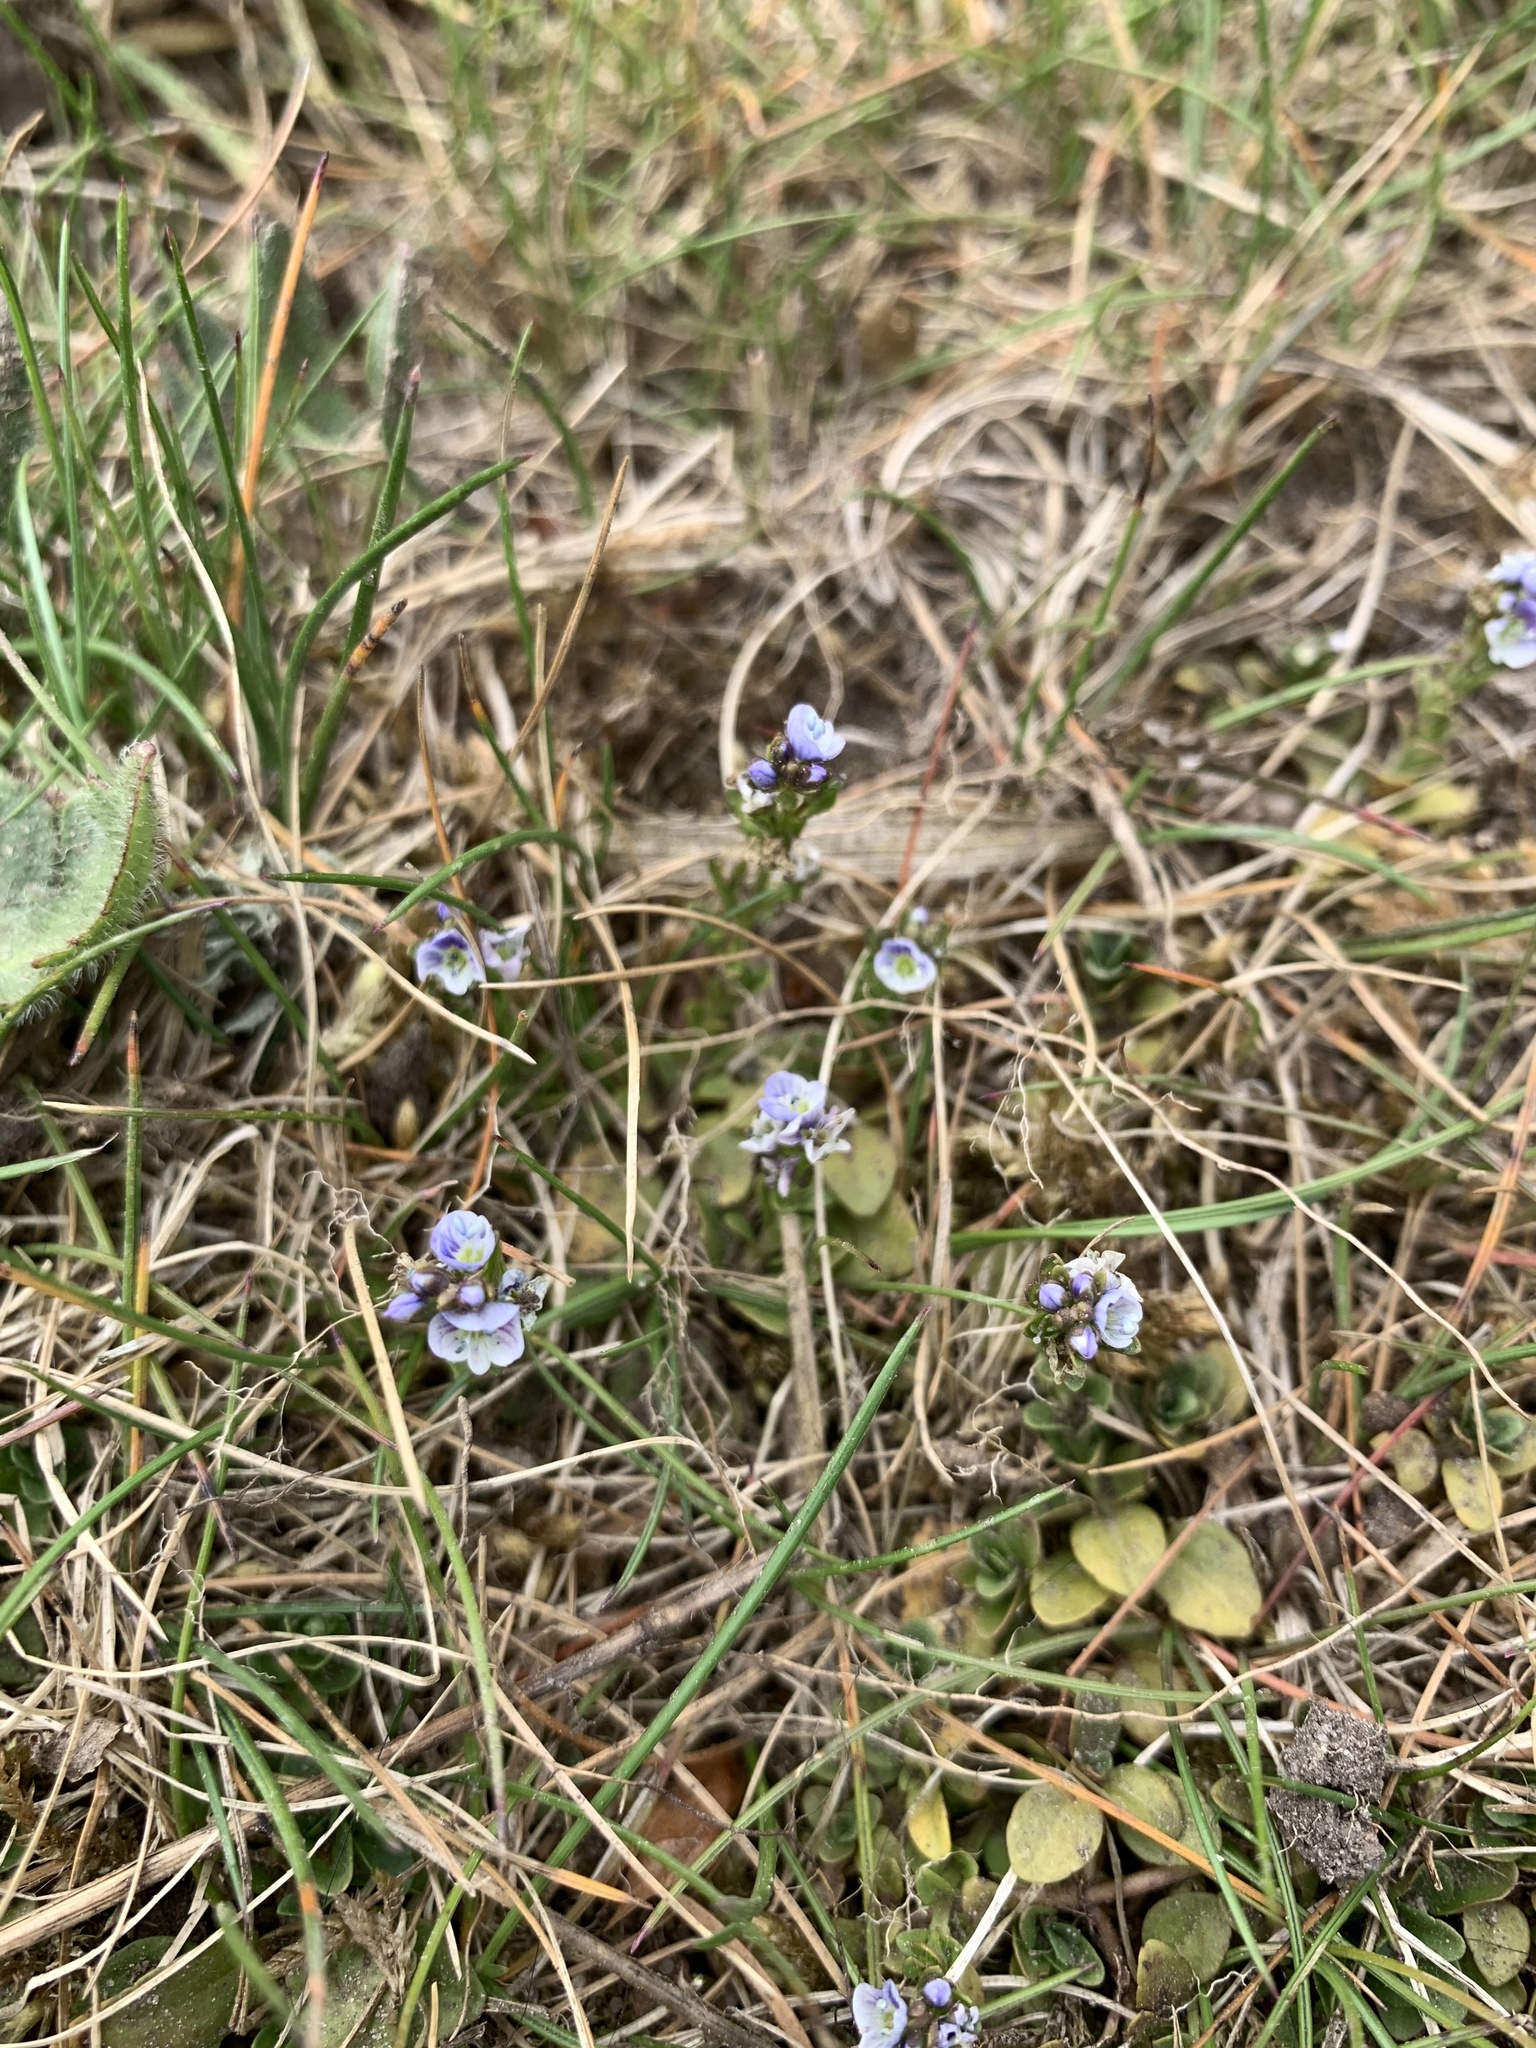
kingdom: Plantae
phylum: Tracheophyta
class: Magnoliopsida
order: Lamiales
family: Plantaginaceae
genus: Veronica
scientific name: Veronica serpyllifolia
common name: Thyme-leaved speedwell
